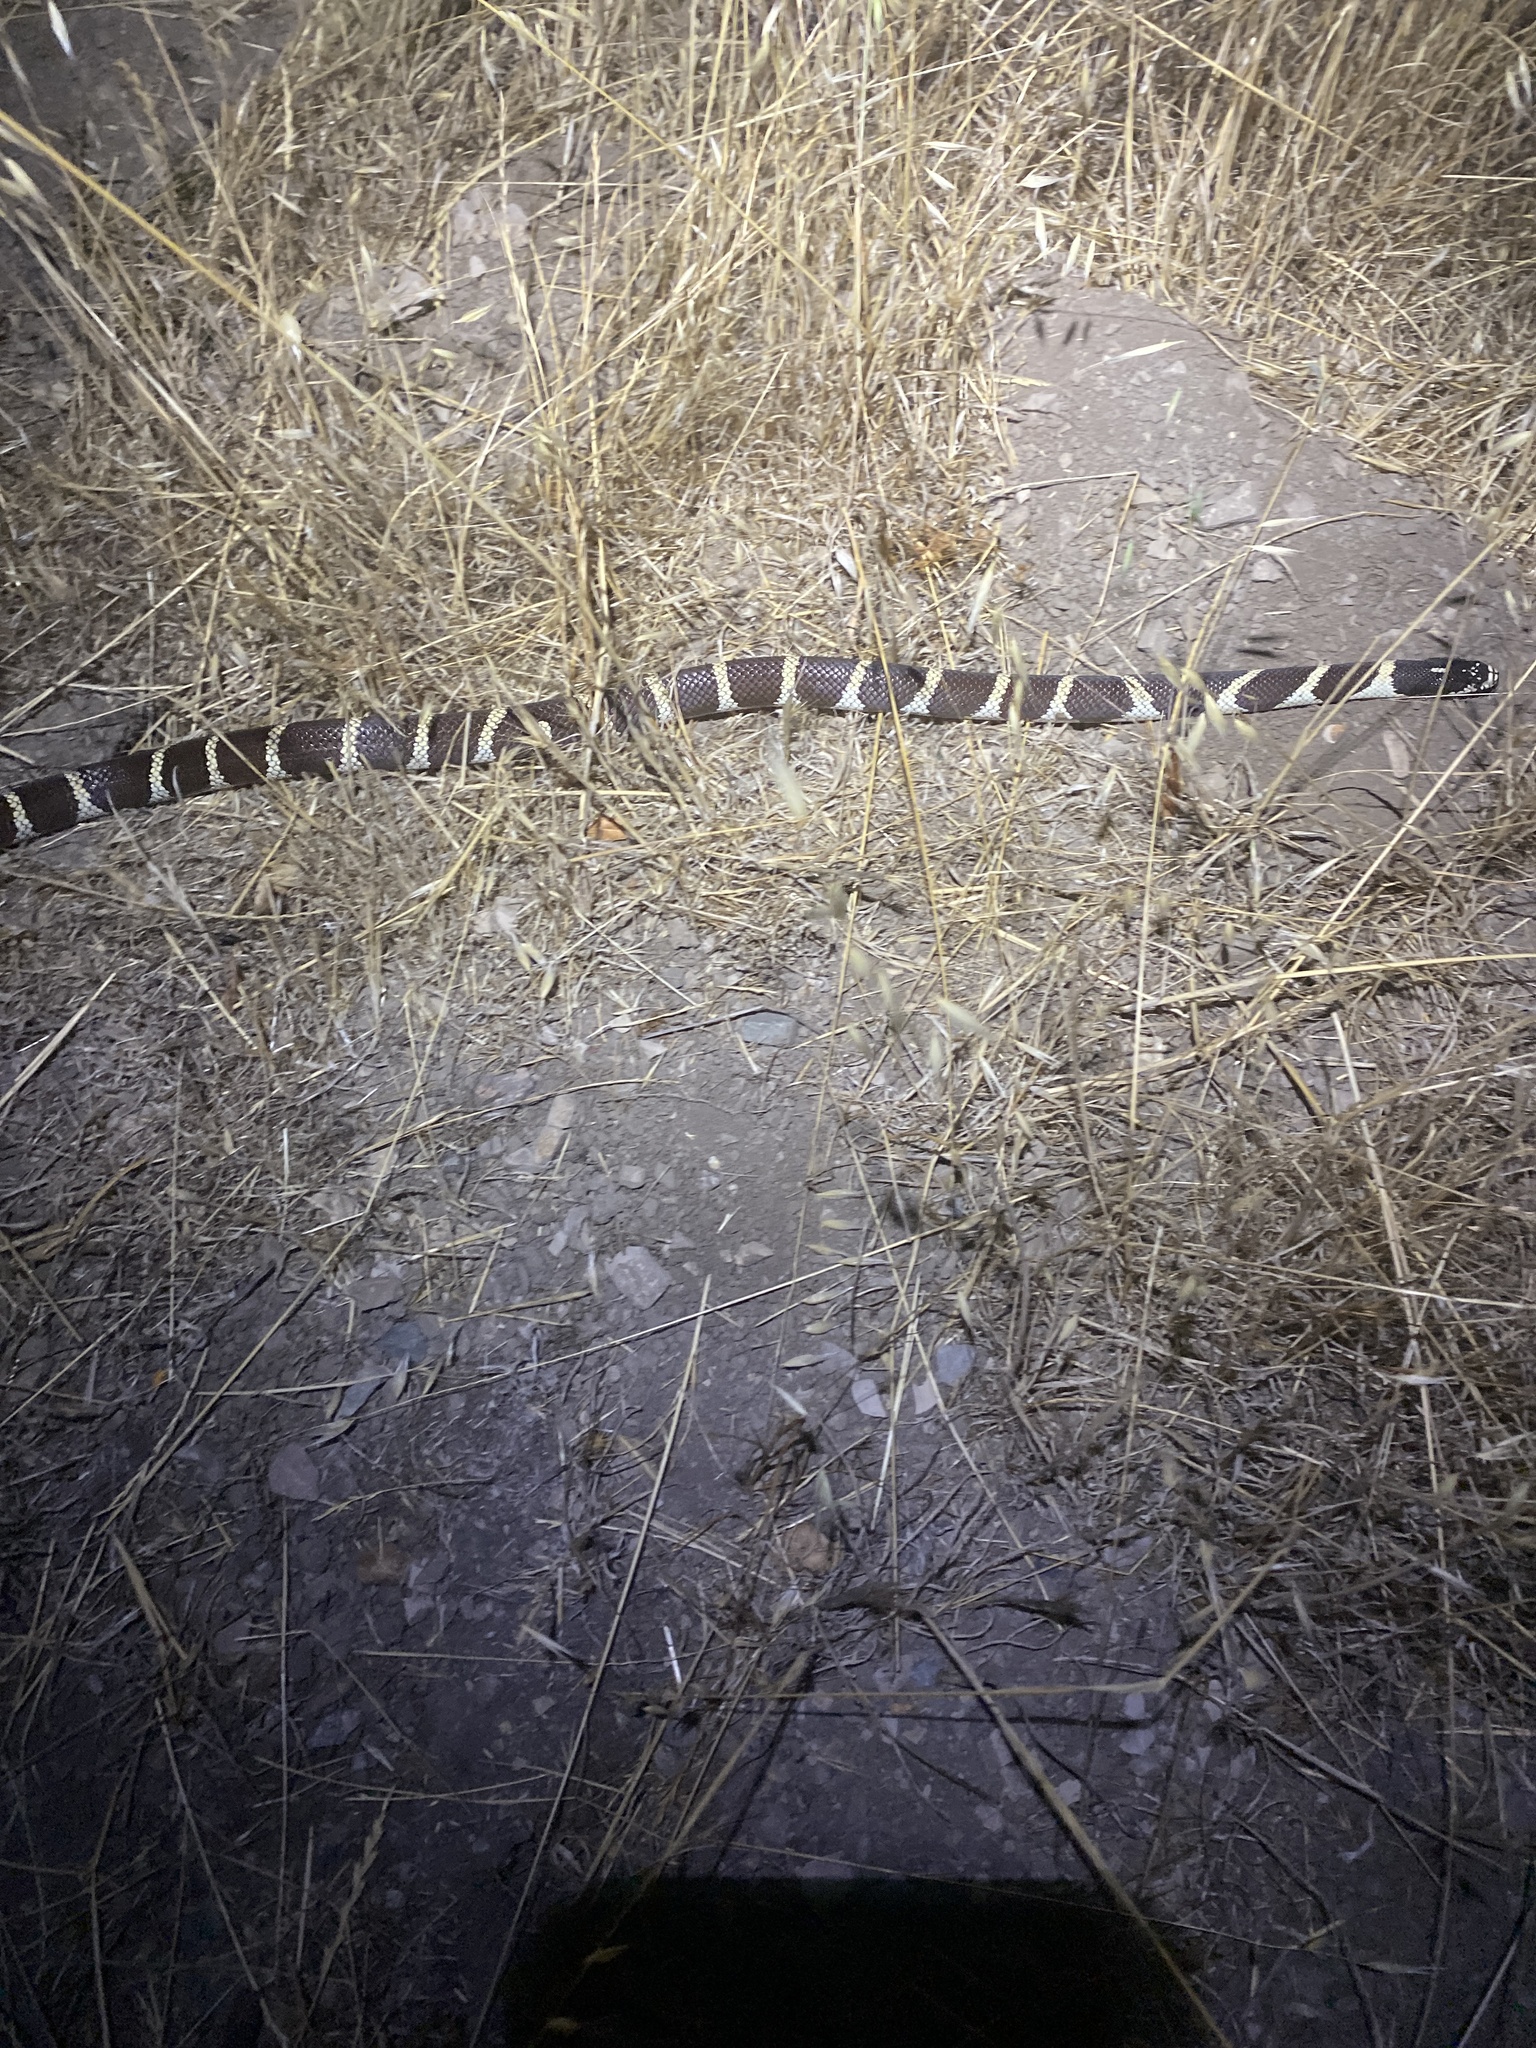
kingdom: Animalia
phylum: Chordata
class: Squamata
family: Colubridae
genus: Lampropeltis
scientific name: Lampropeltis californiae
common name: California kingsnake
